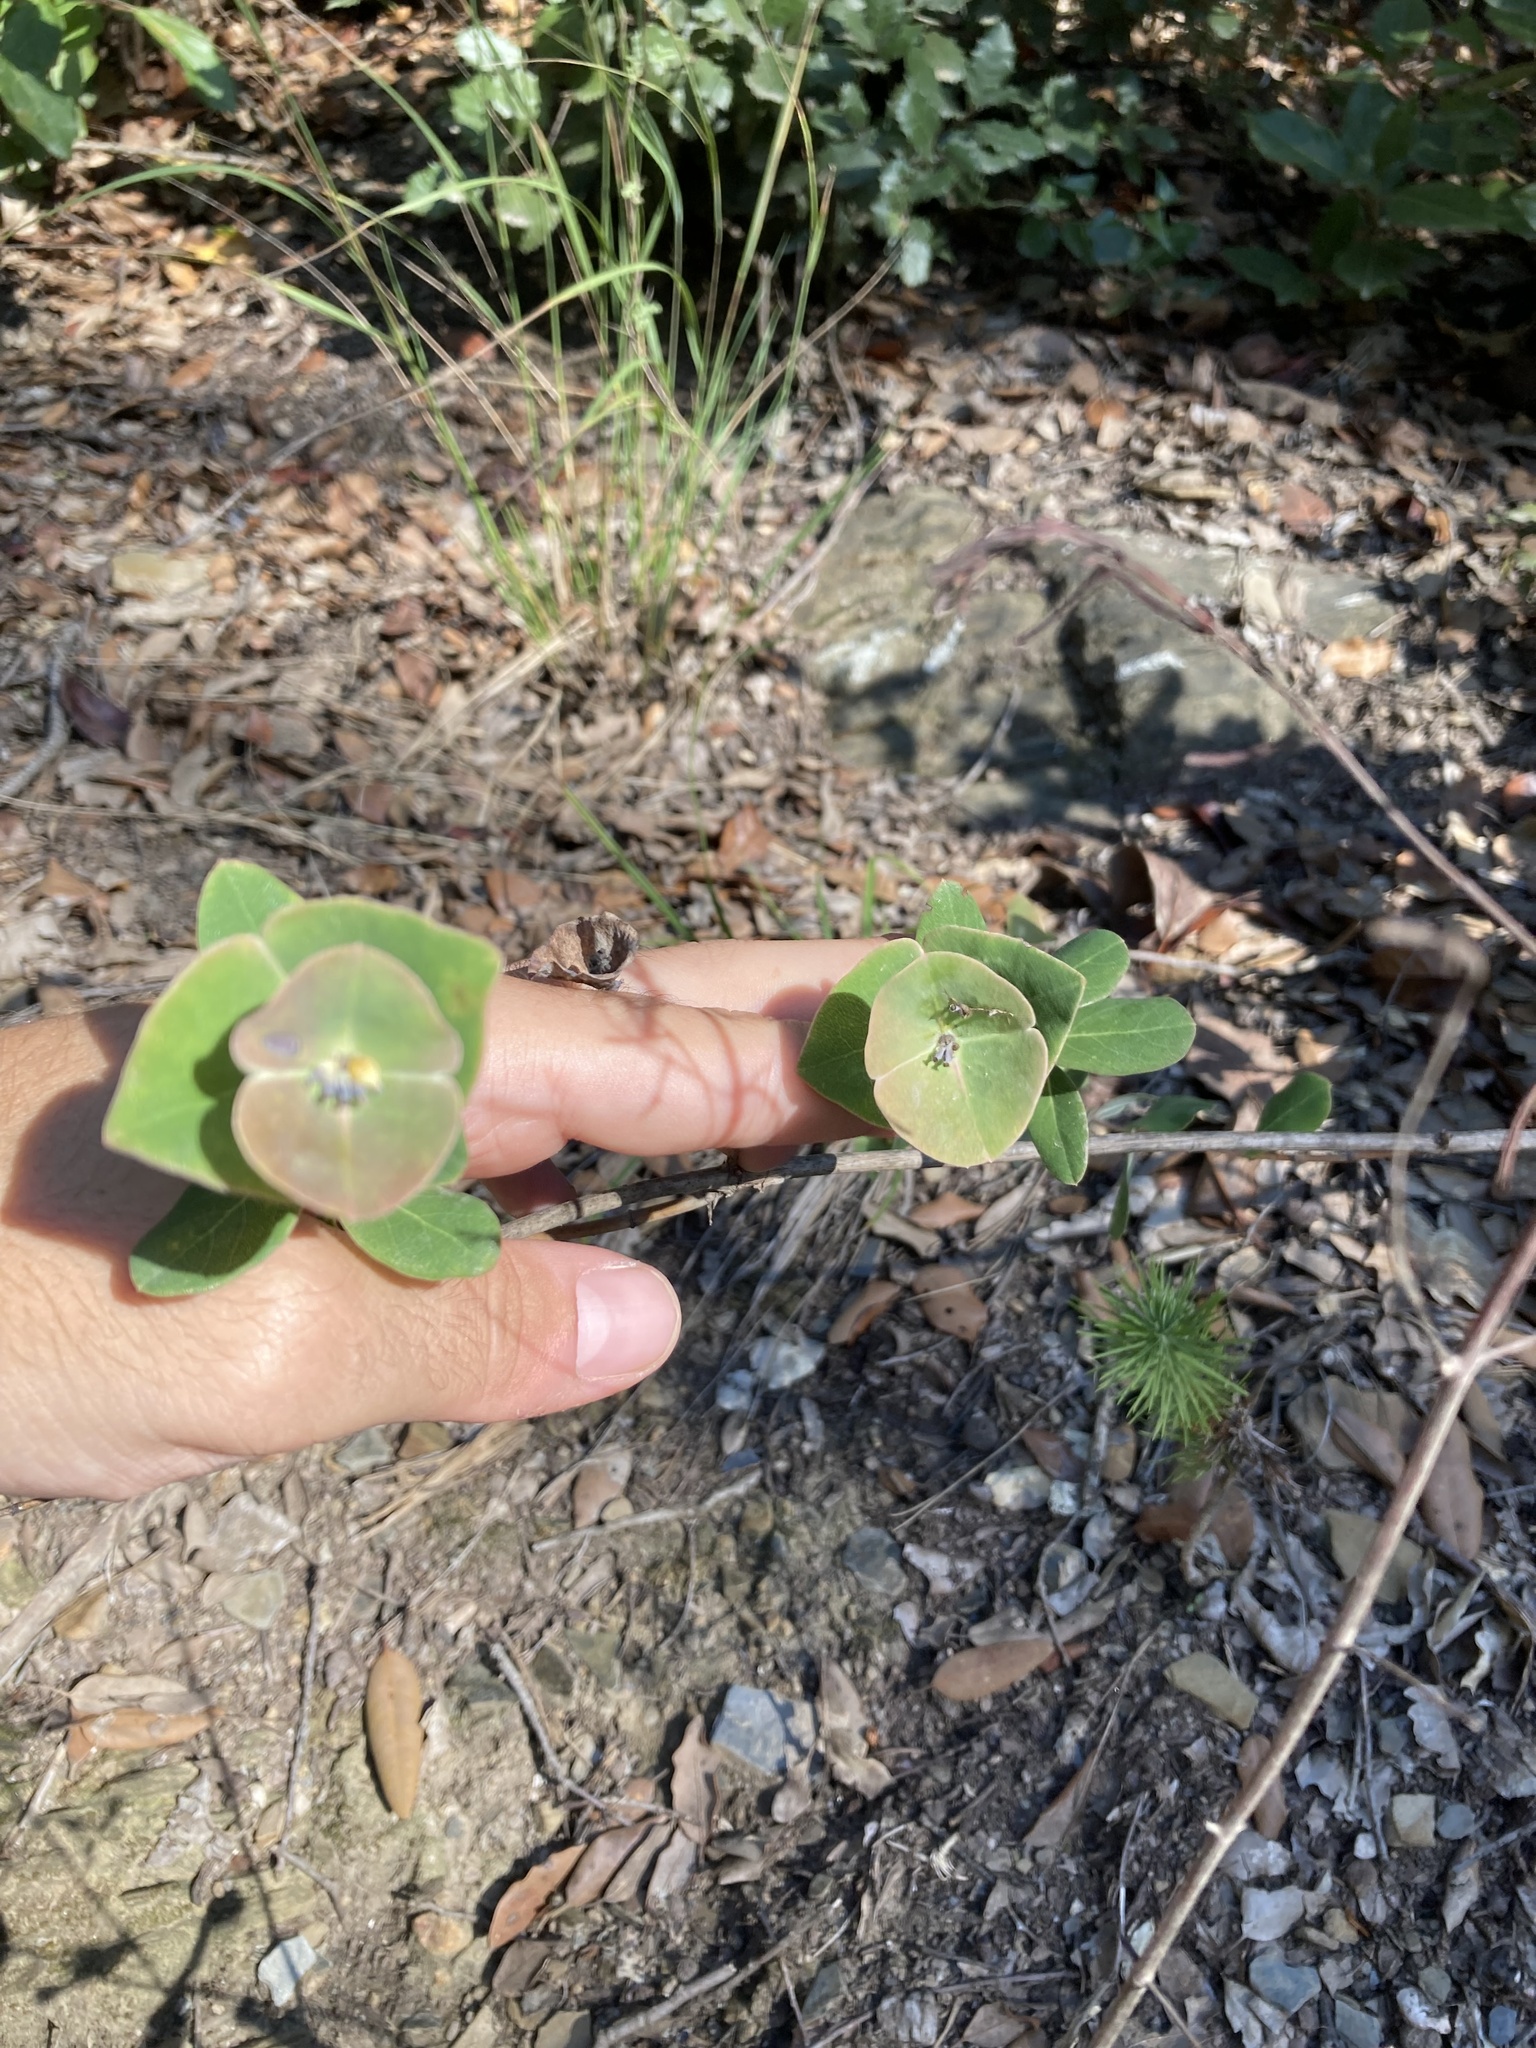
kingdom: Plantae
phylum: Tracheophyta
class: Magnoliopsida
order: Dipsacales
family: Caprifoliaceae
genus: Lonicera
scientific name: Lonicera implexa
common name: Minorca honeysuckle
